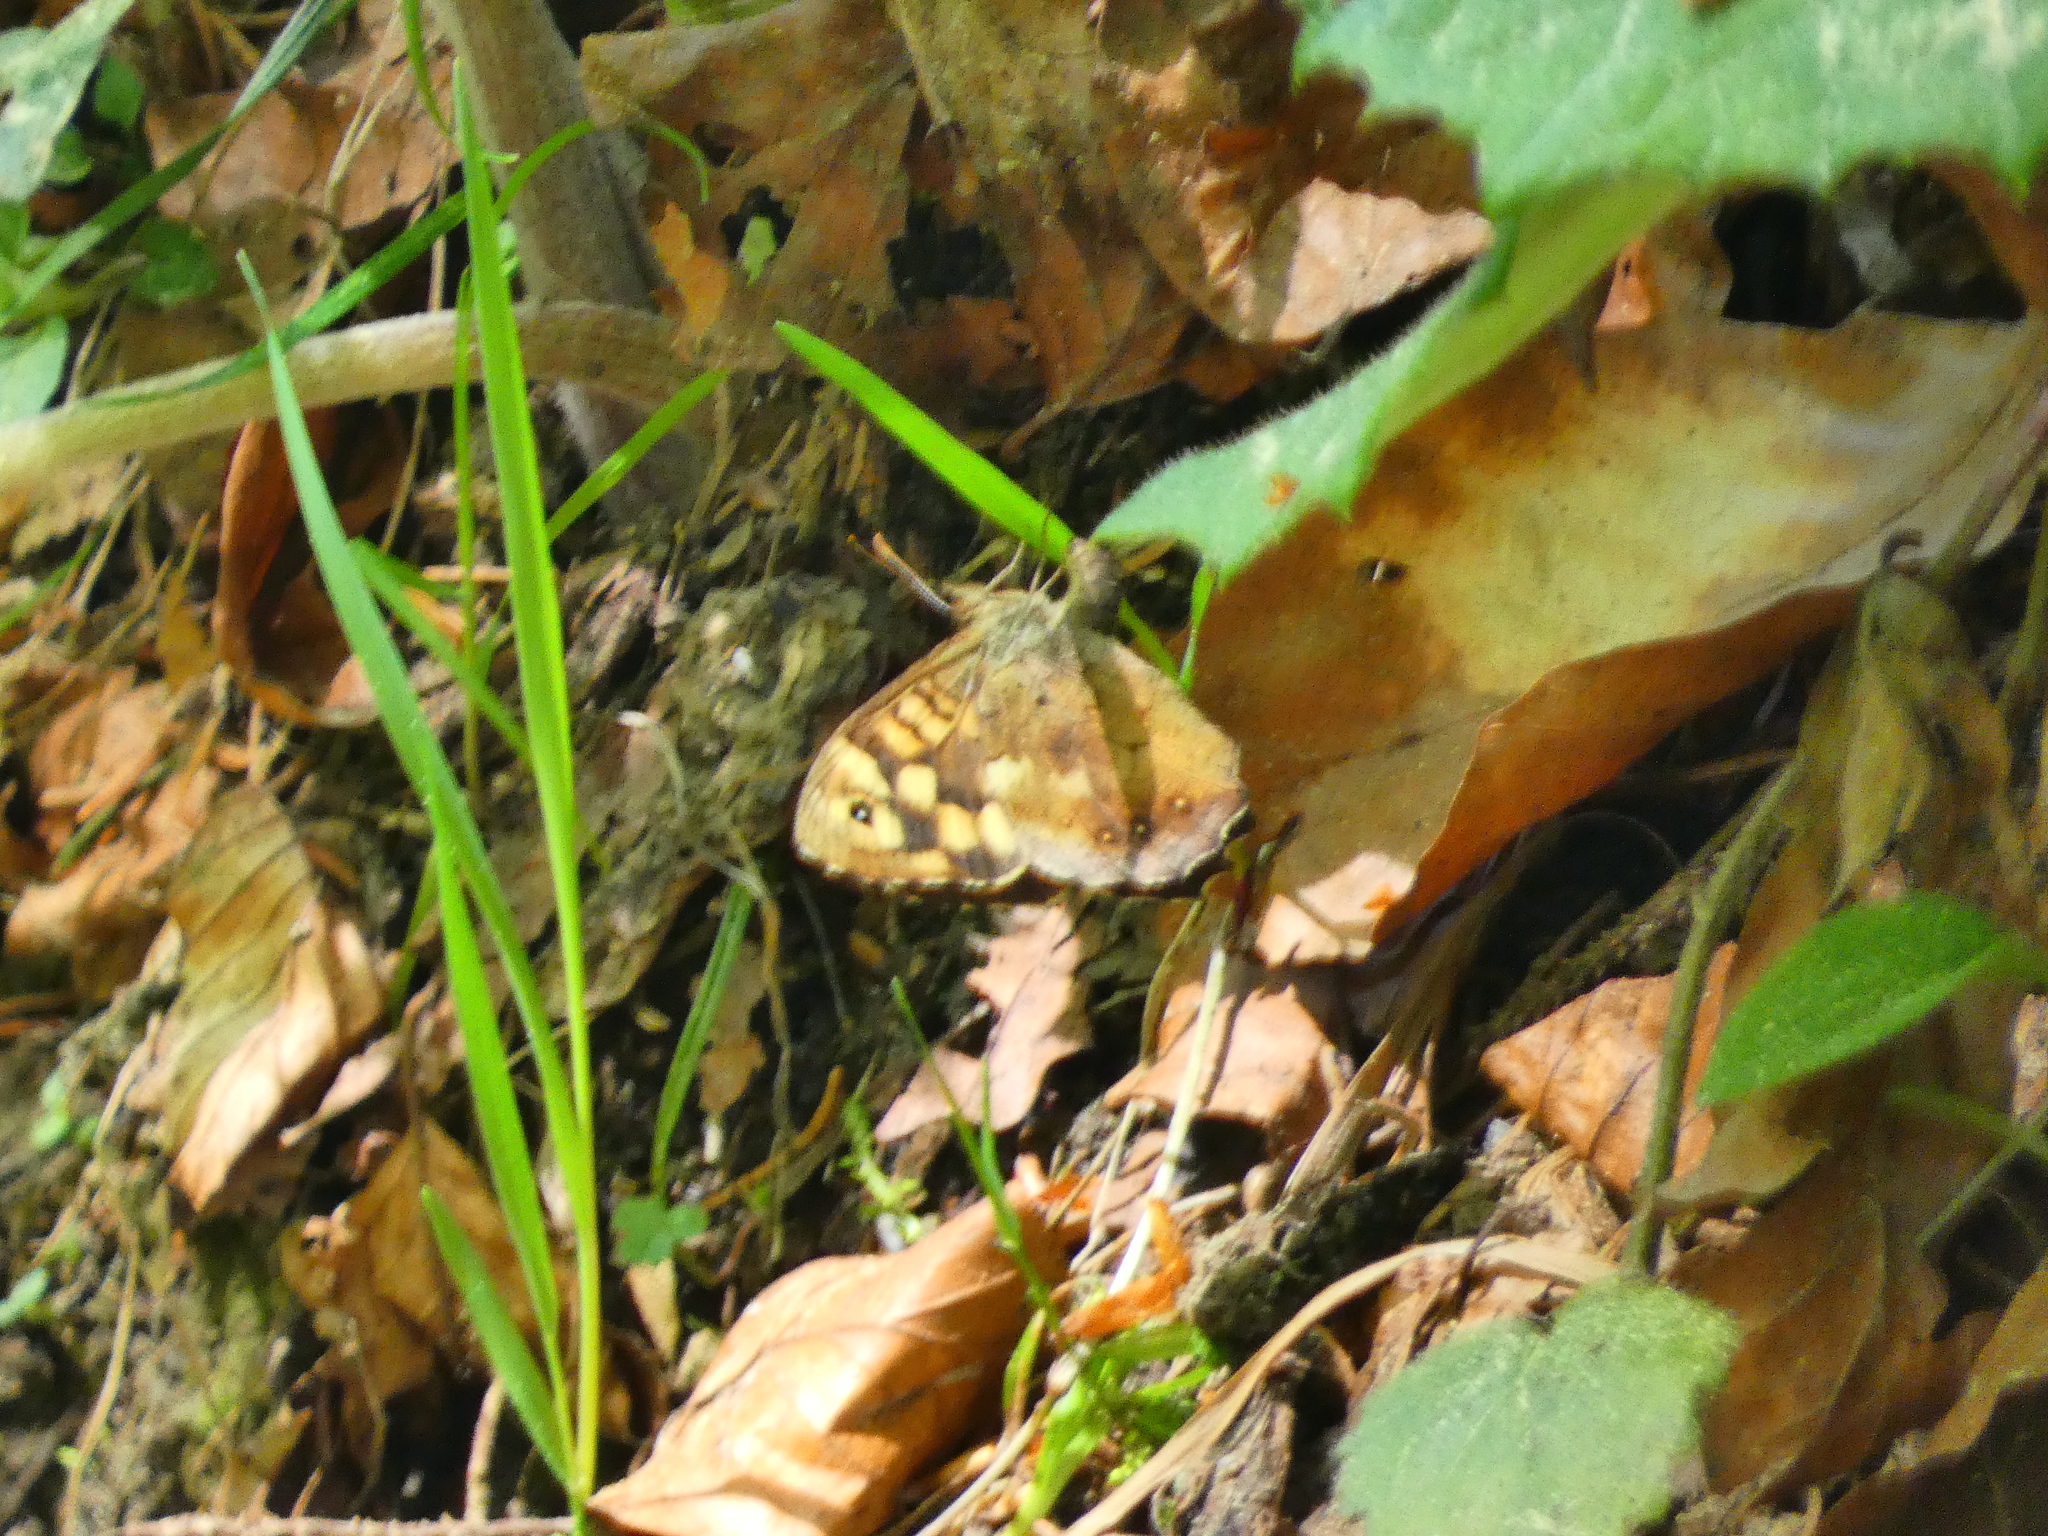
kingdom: Animalia
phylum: Arthropoda
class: Insecta
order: Lepidoptera
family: Nymphalidae
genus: Pararge
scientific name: Pararge aegeria
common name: Speckled wood
